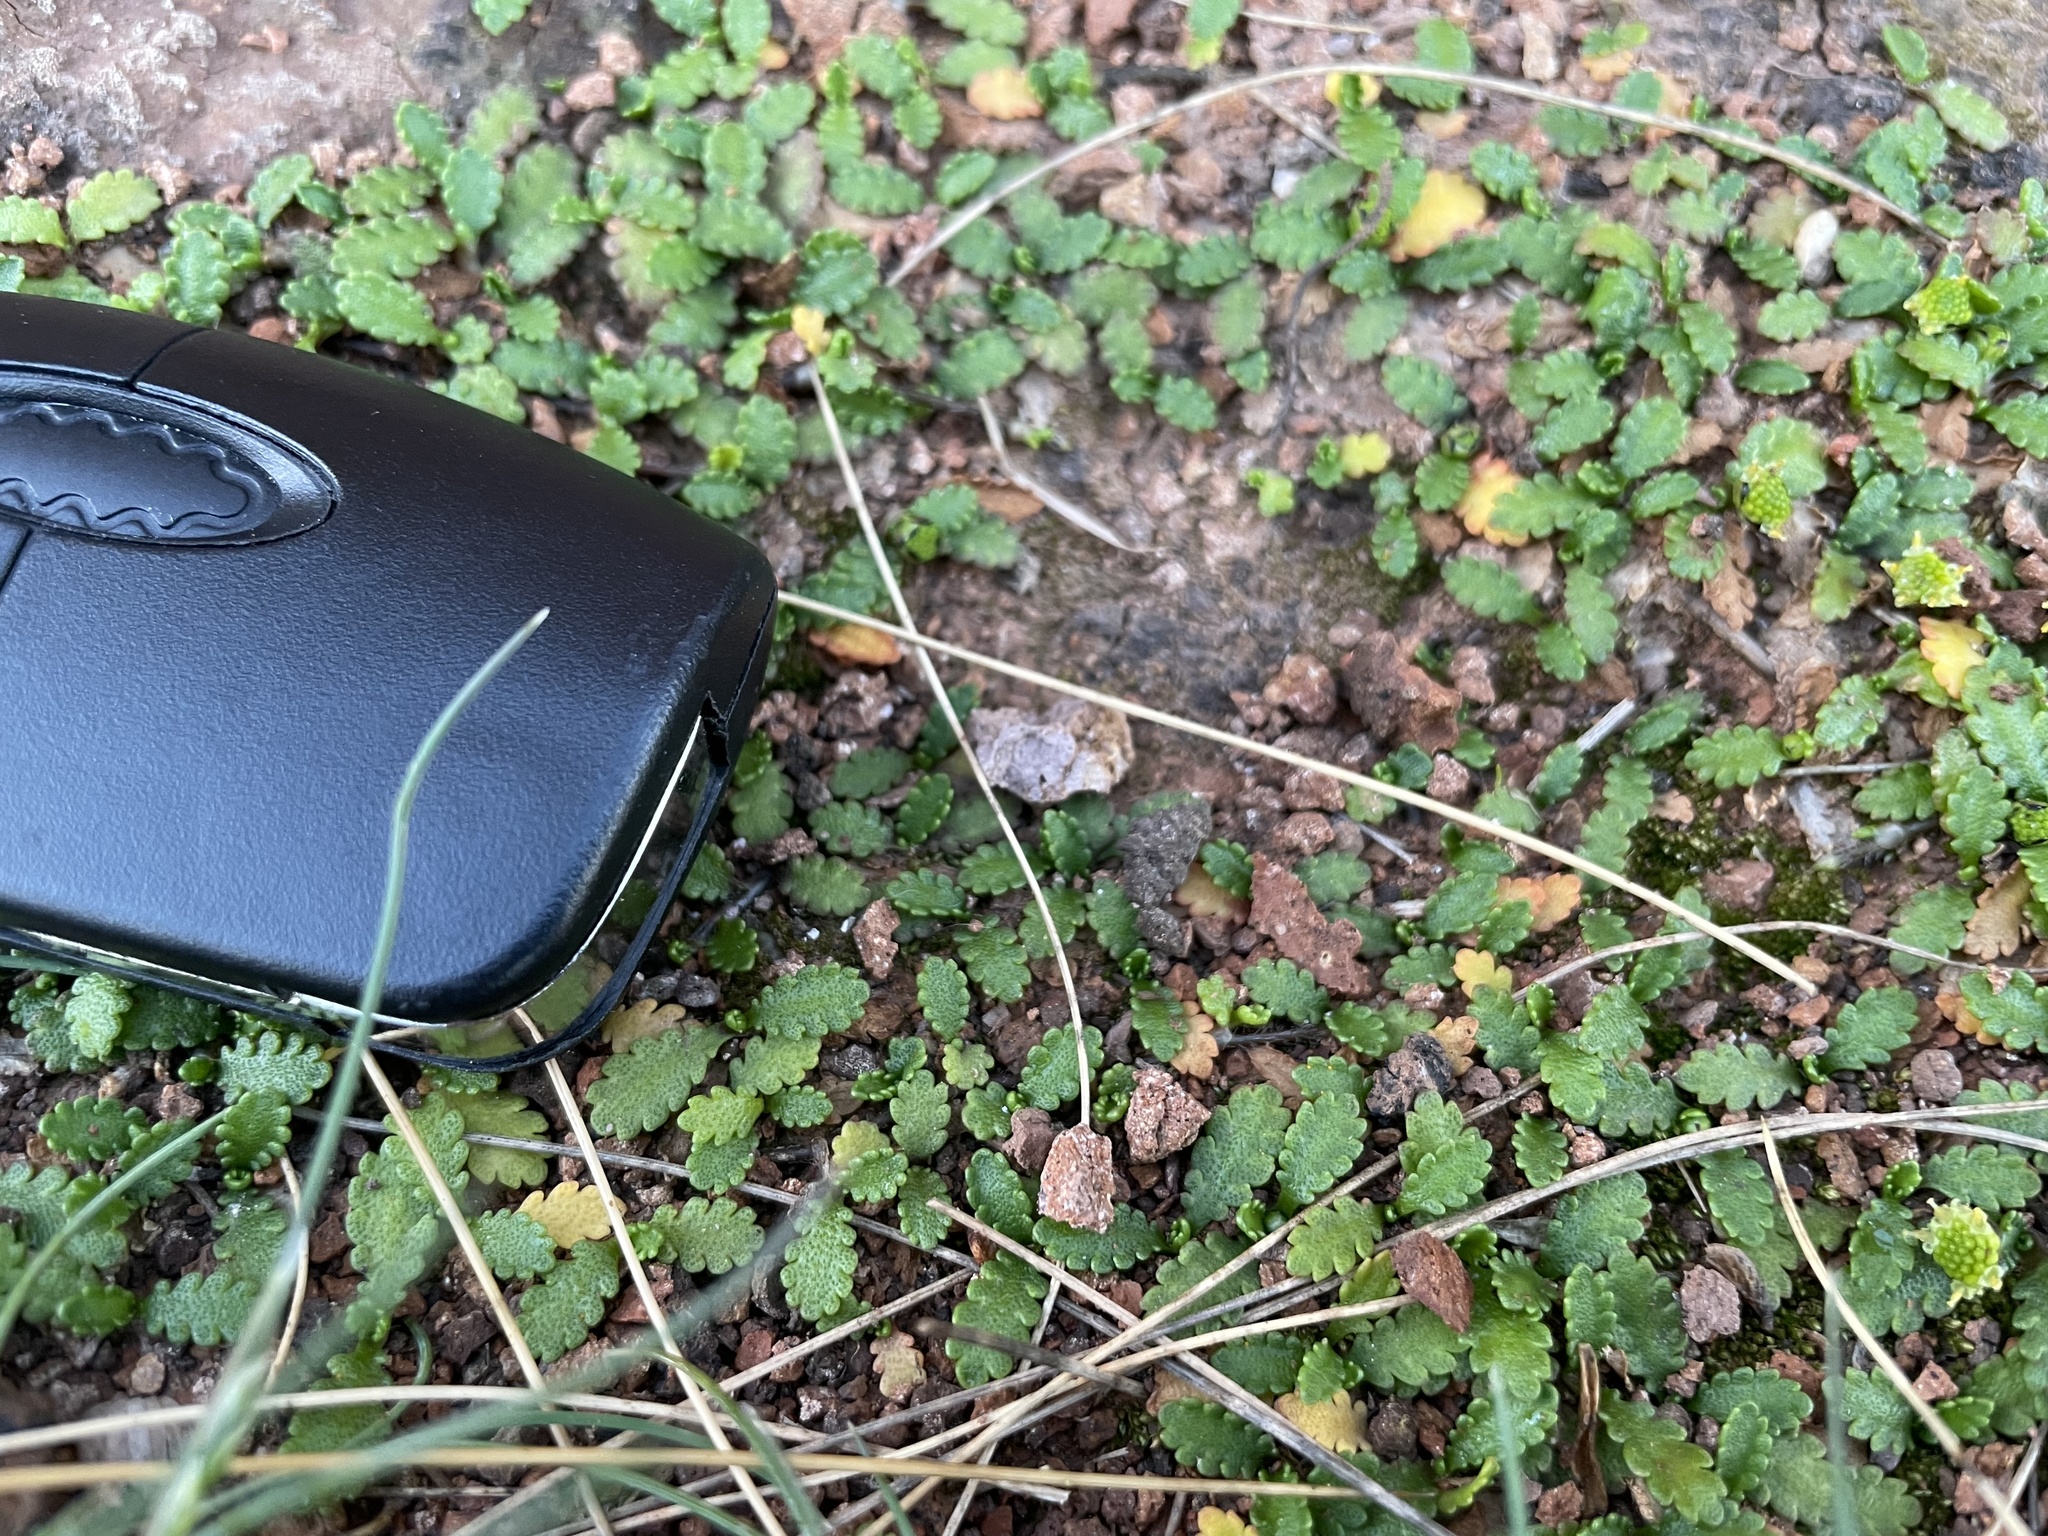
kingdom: Plantae
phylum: Tracheophyta
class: Magnoliopsida
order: Asterales
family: Asteraceae
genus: Leptinella
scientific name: Leptinella dioica
